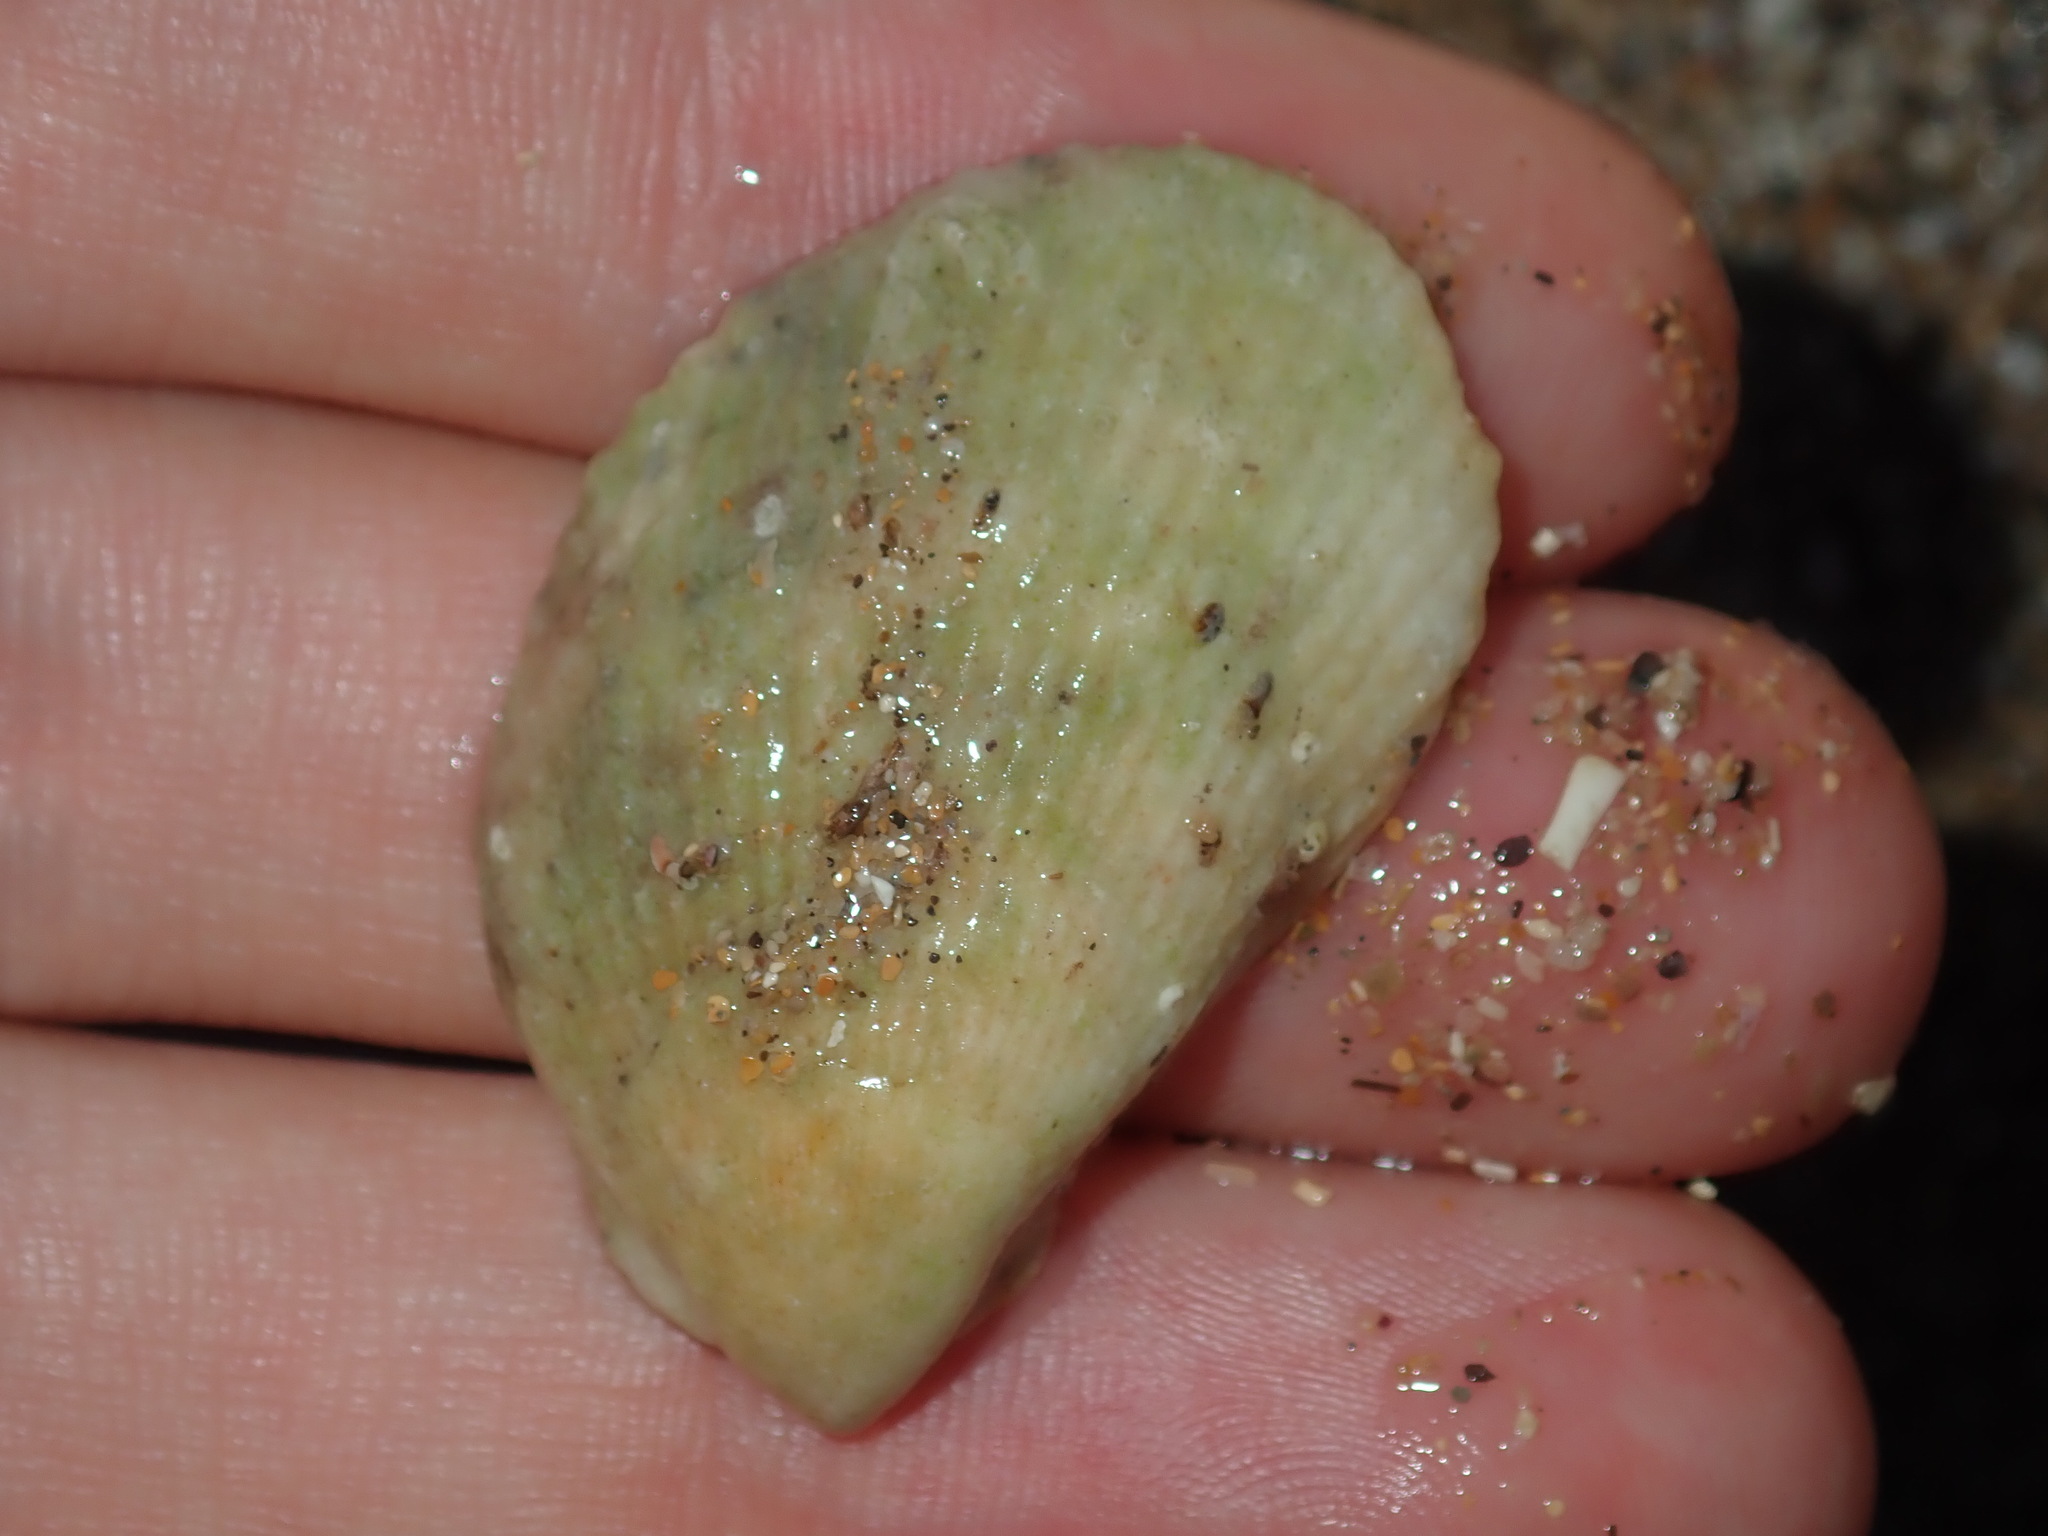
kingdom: Animalia
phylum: Mollusca
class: Bivalvia
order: Limida
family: Limidae
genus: Lima
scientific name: Lima nimbifer
